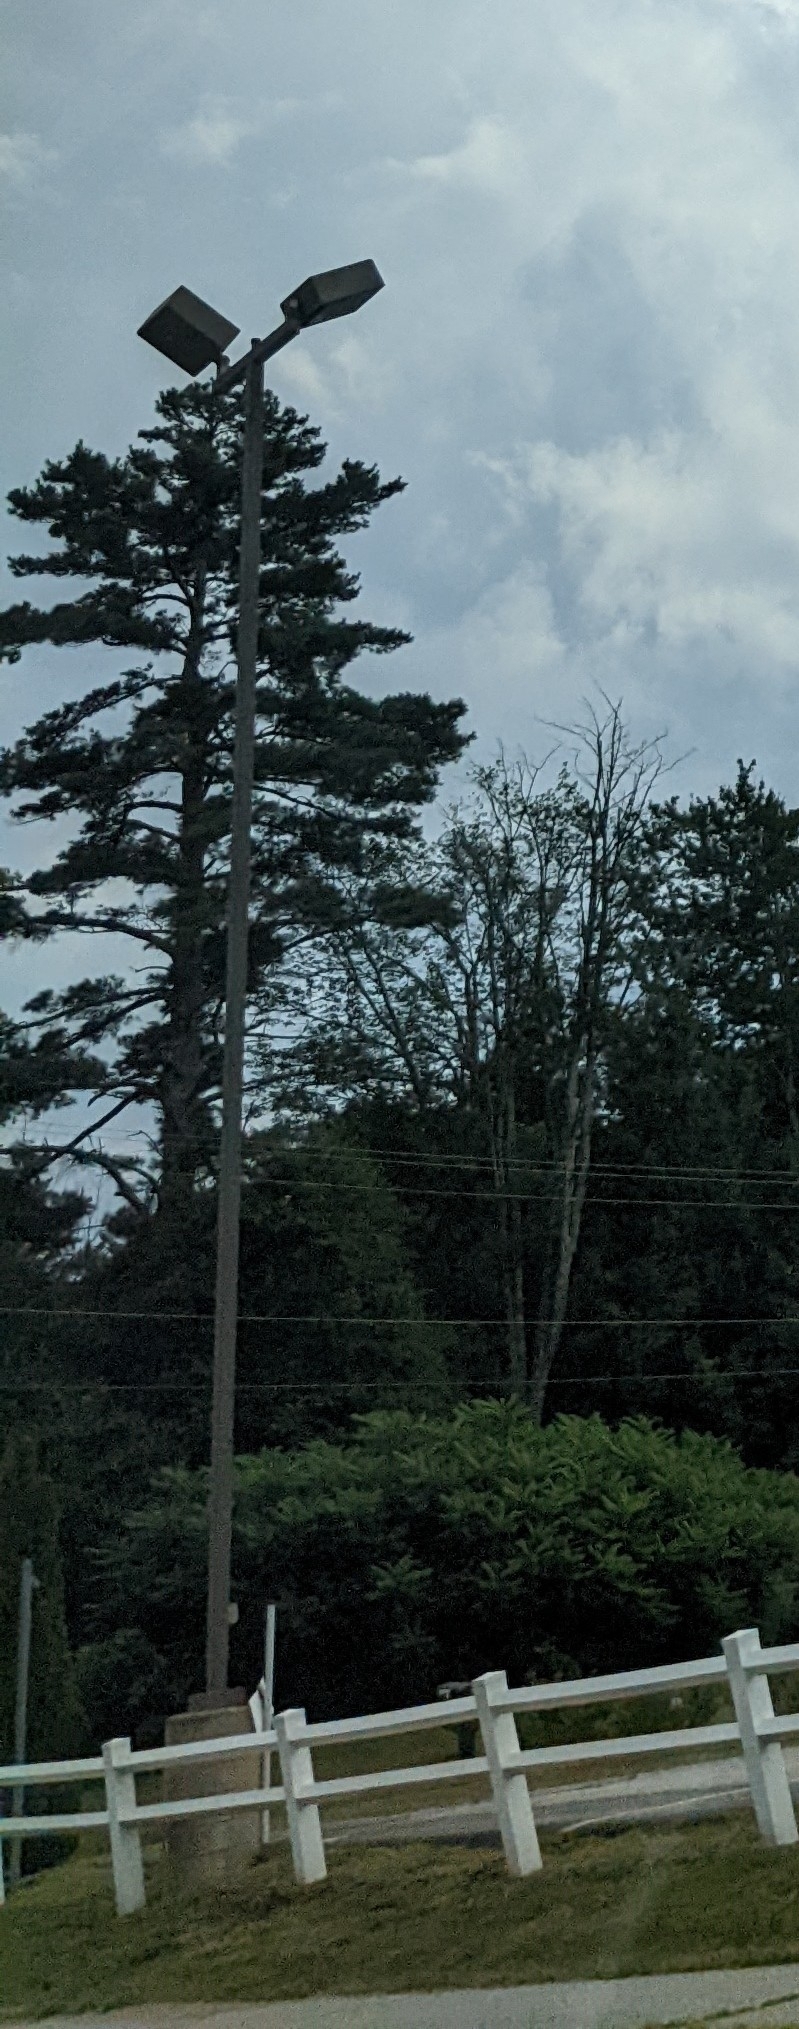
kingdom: Plantae
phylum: Tracheophyta
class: Pinopsida
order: Pinales
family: Pinaceae
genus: Pinus
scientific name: Pinus strobus
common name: Weymouth pine
